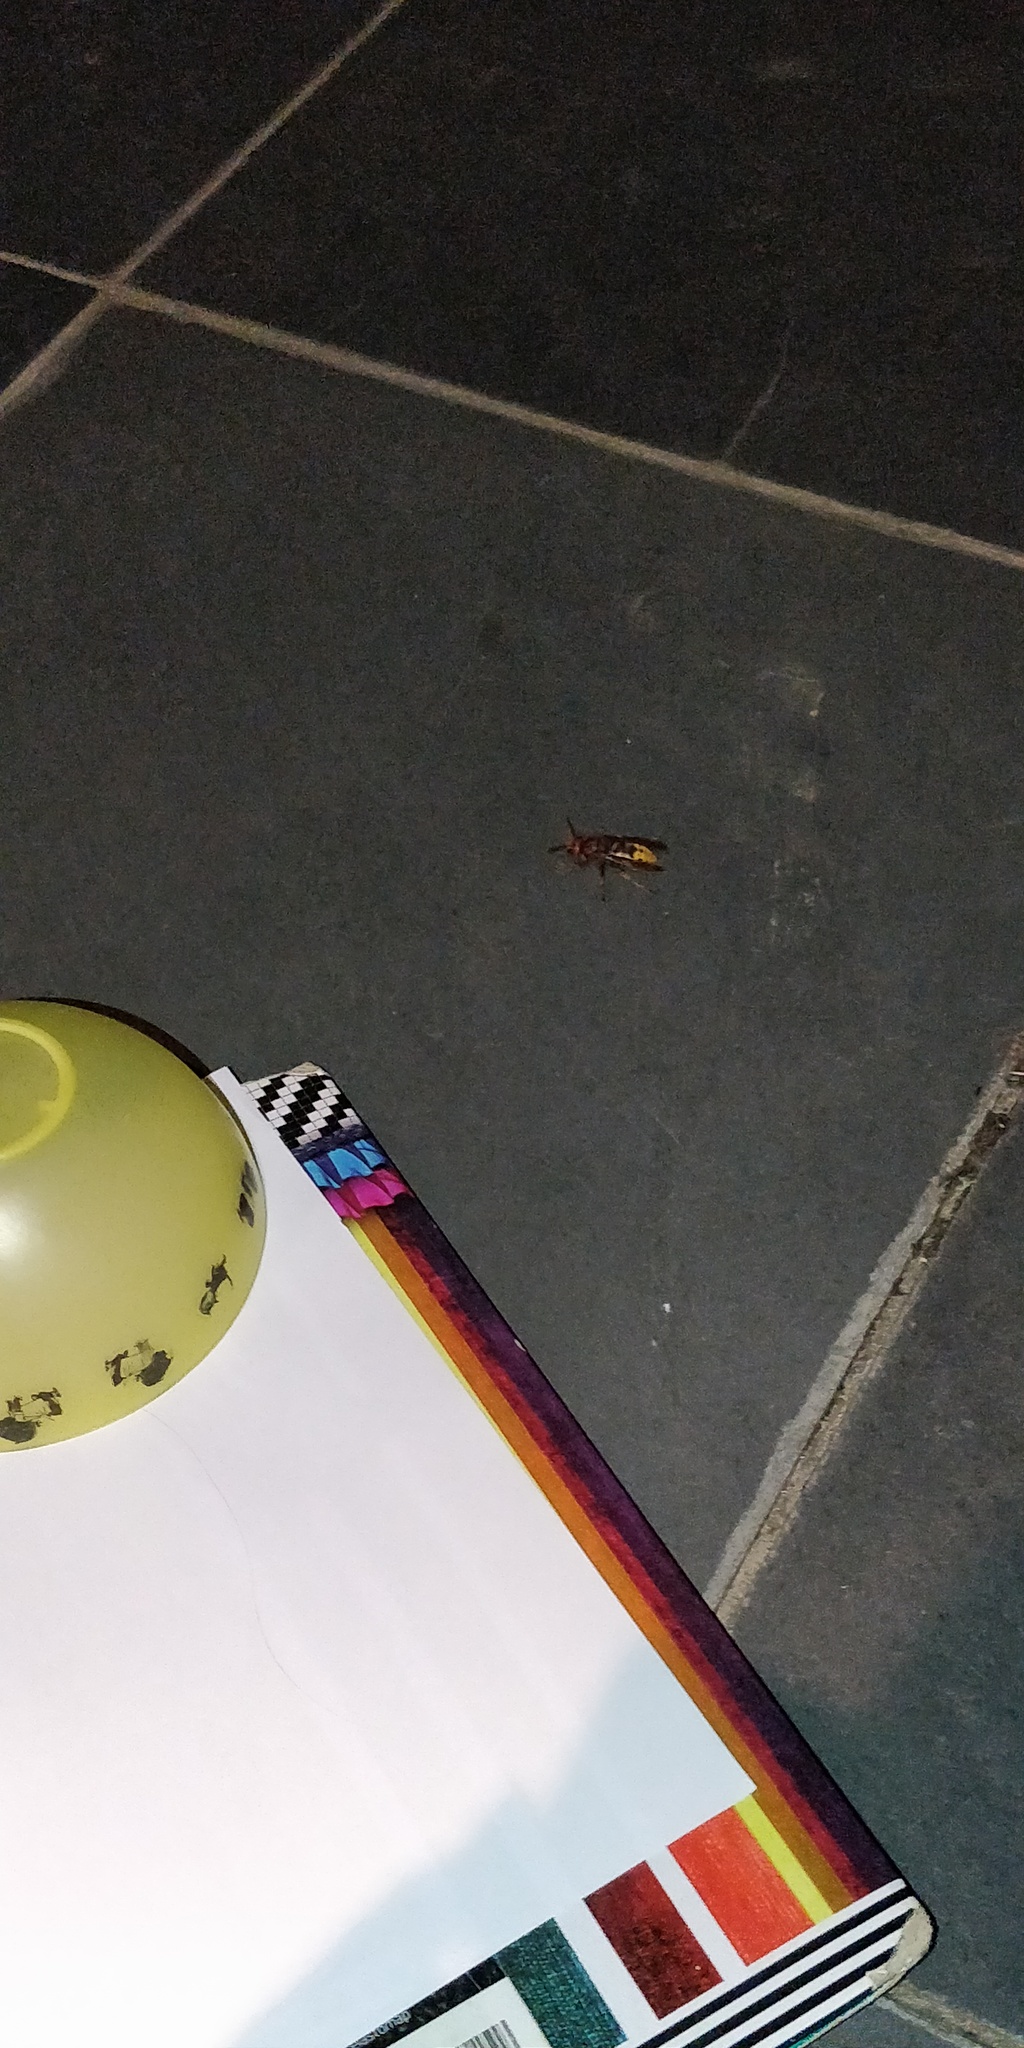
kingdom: Animalia
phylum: Arthropoda
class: Insecta
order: Hymenoptera
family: Vespidae
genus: Vespa
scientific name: Vespa crabro
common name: Hornet
